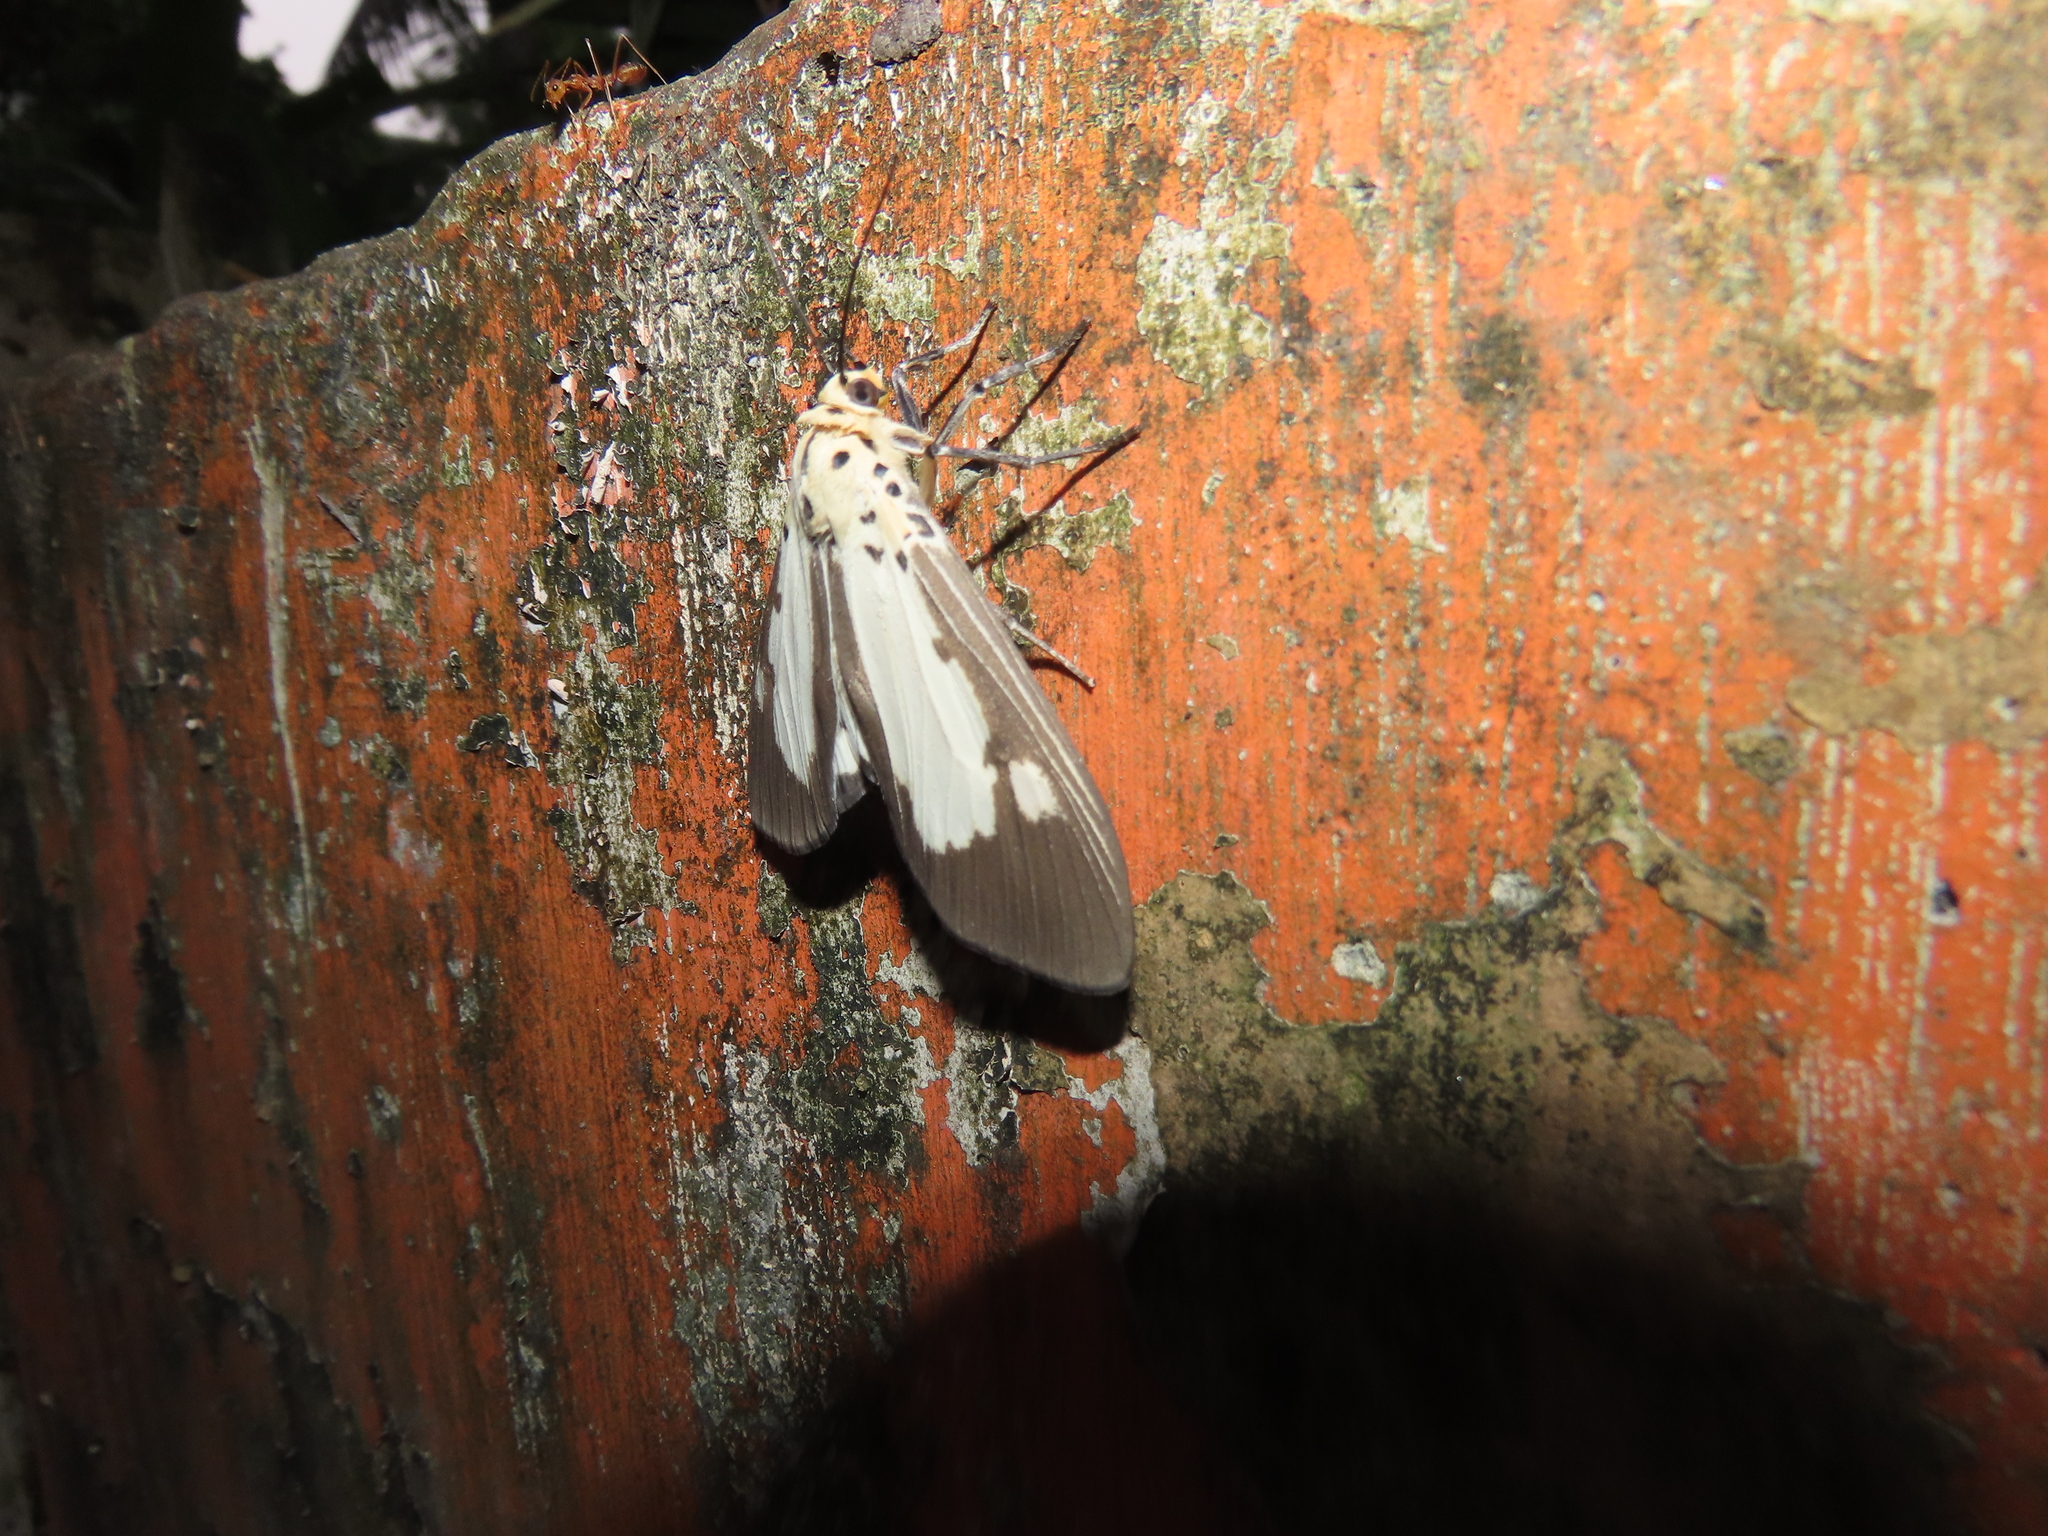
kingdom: Animalia
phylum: Arthropoda
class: Insecta
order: Lepidoptera
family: Erebidae
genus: Asota
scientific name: Asota plana
